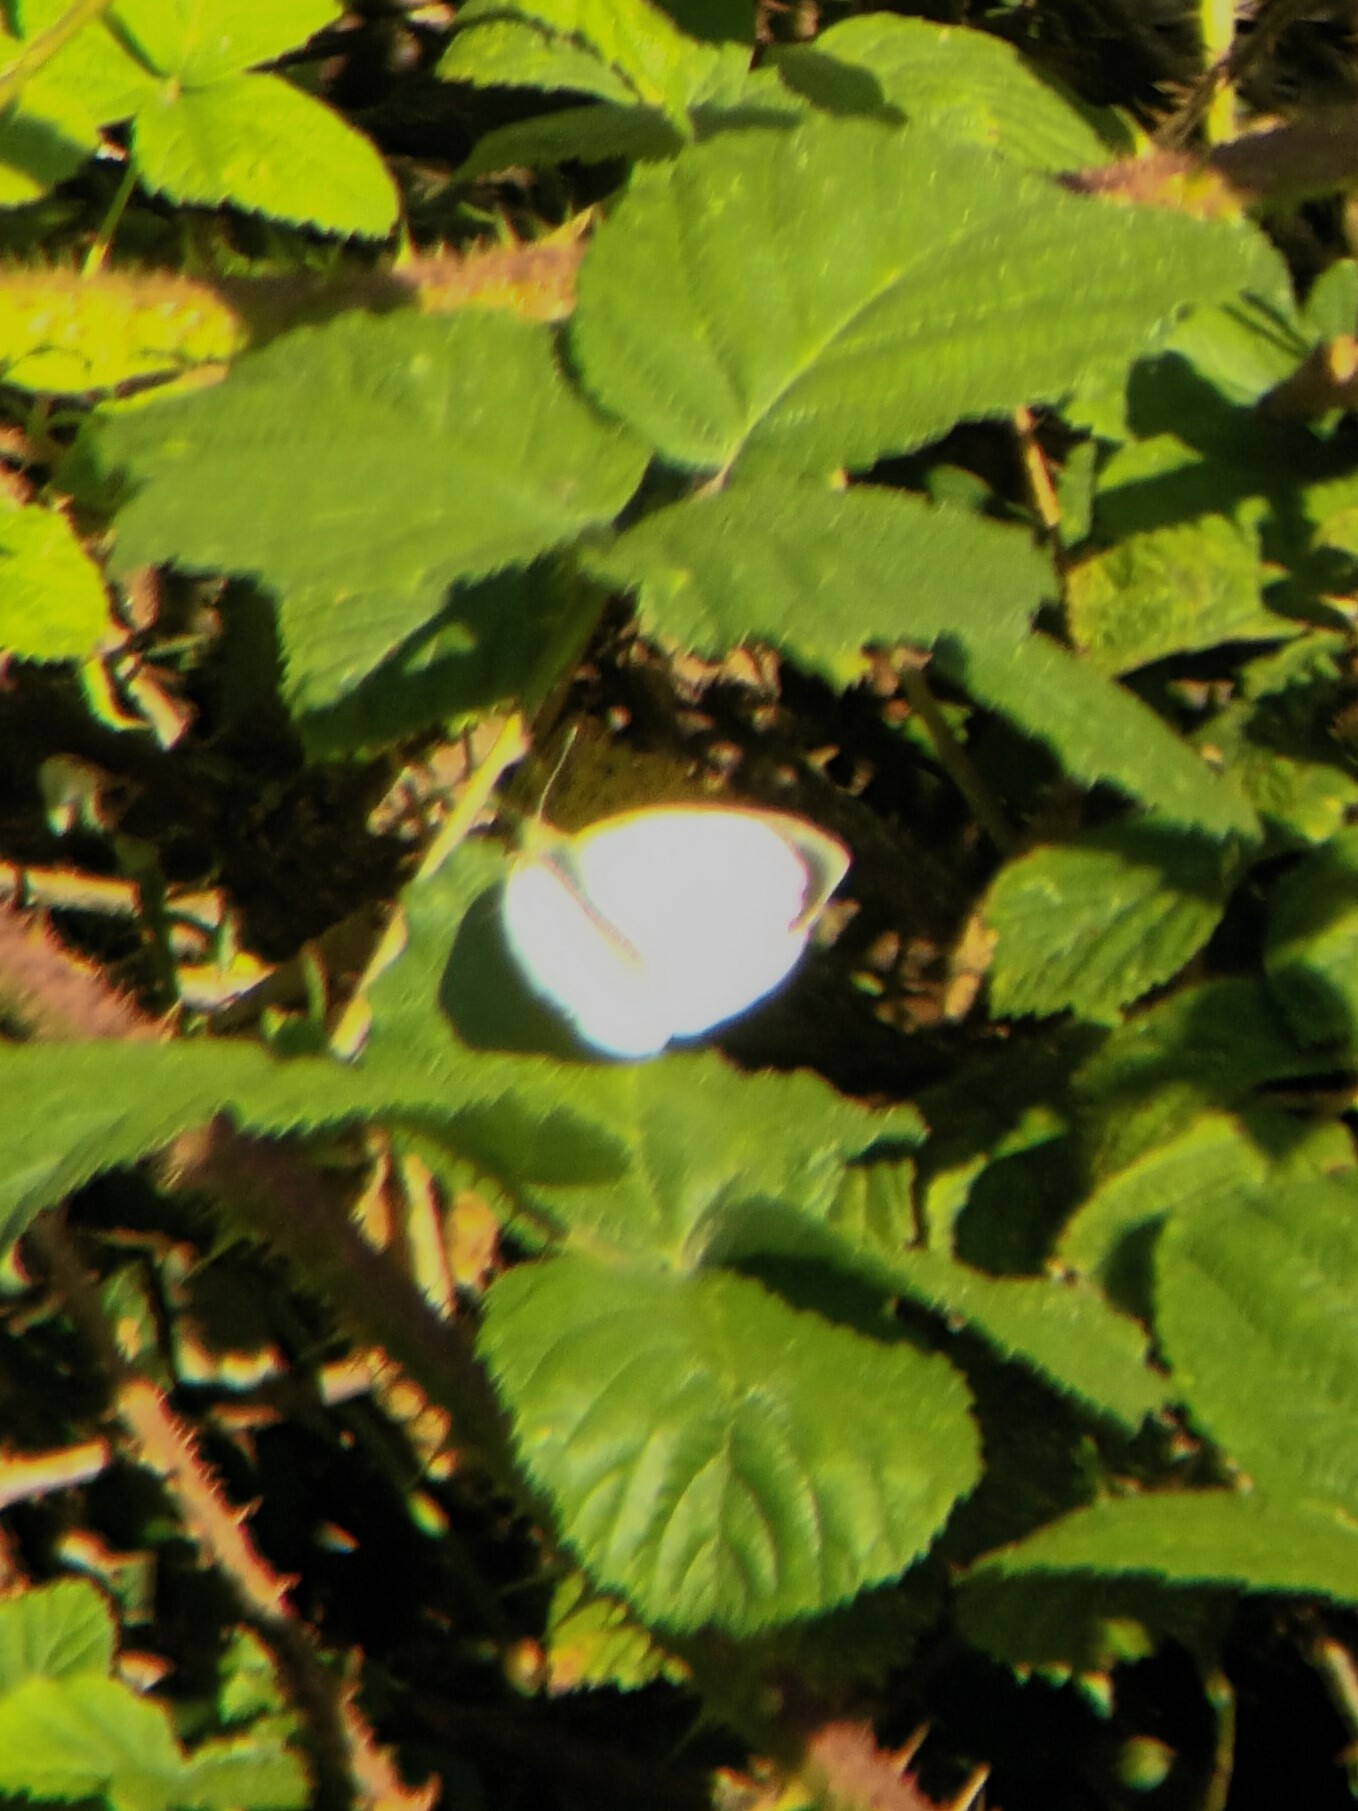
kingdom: Animalia
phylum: Arthropoda
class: Insecta
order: Lepidoptera
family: Pieridae
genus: Pieris
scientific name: Pieris brassicae
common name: Large white
